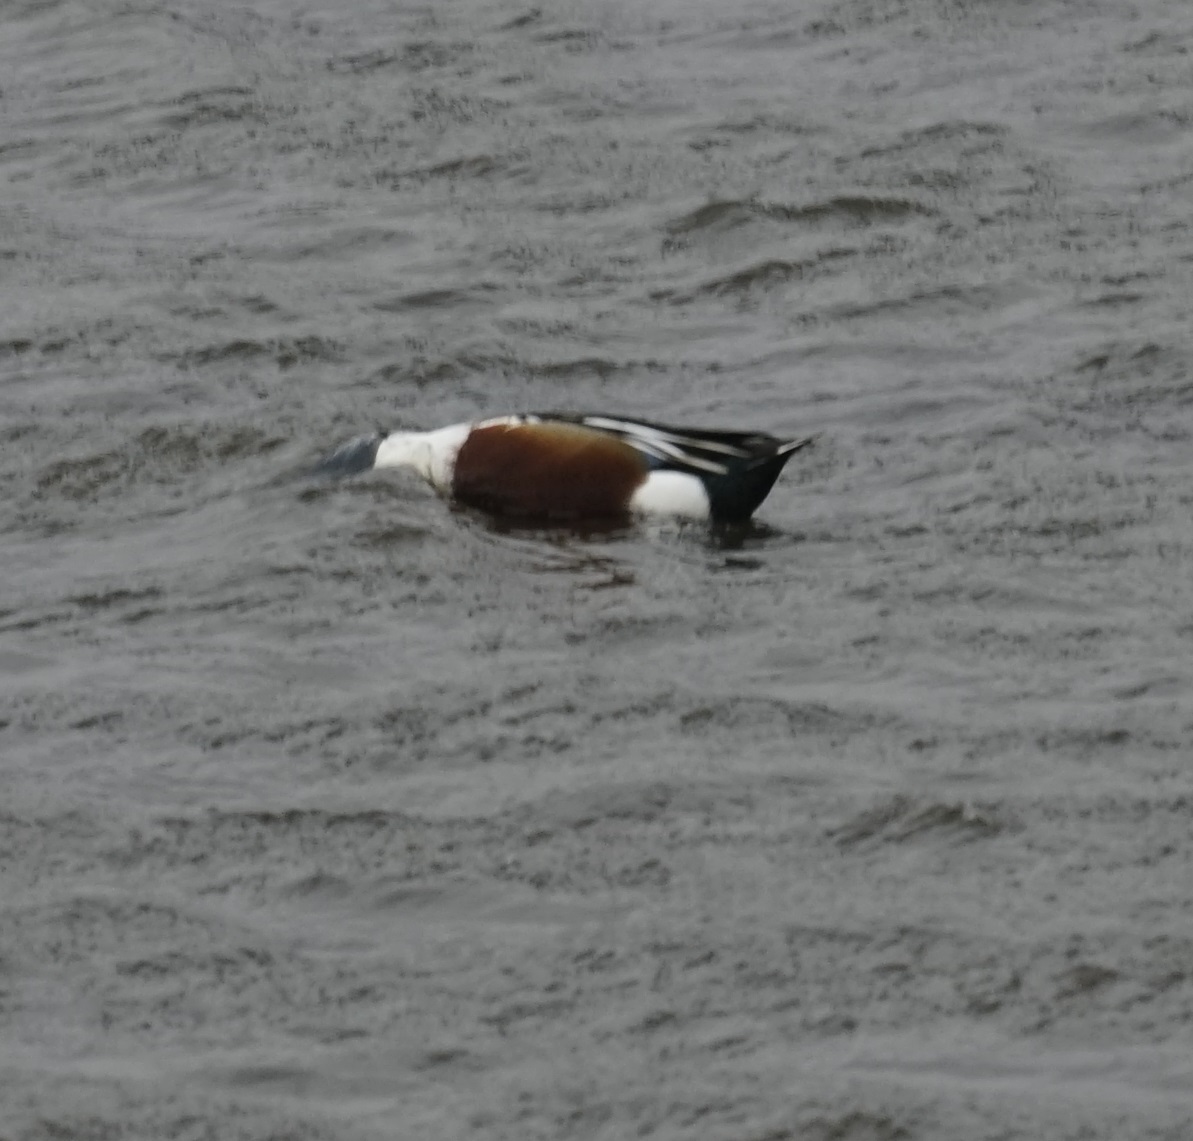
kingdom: Animalia
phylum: Chordata
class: Aves
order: Anseriformes
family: Anatidae
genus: Spatula
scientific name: Spatula clypeata
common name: Northern shoveler
